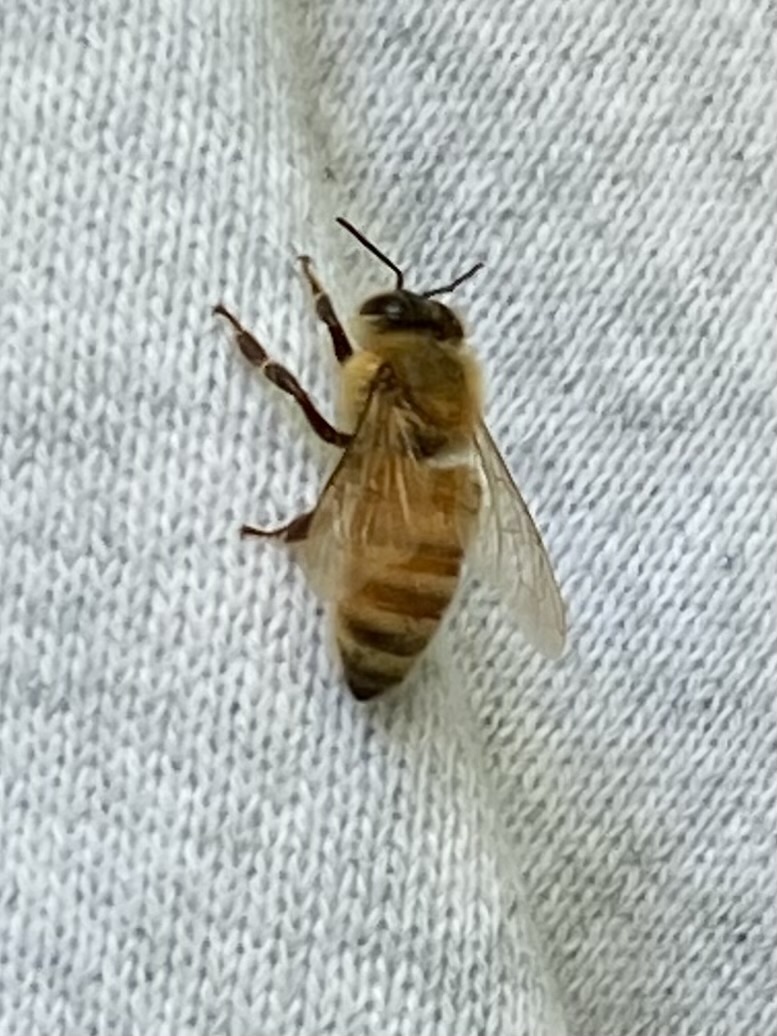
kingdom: Animalia
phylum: Arthropoda
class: Insecta
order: Hymenoptera
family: Apidae
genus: Apis
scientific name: Apis mellifera
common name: Honey bee
